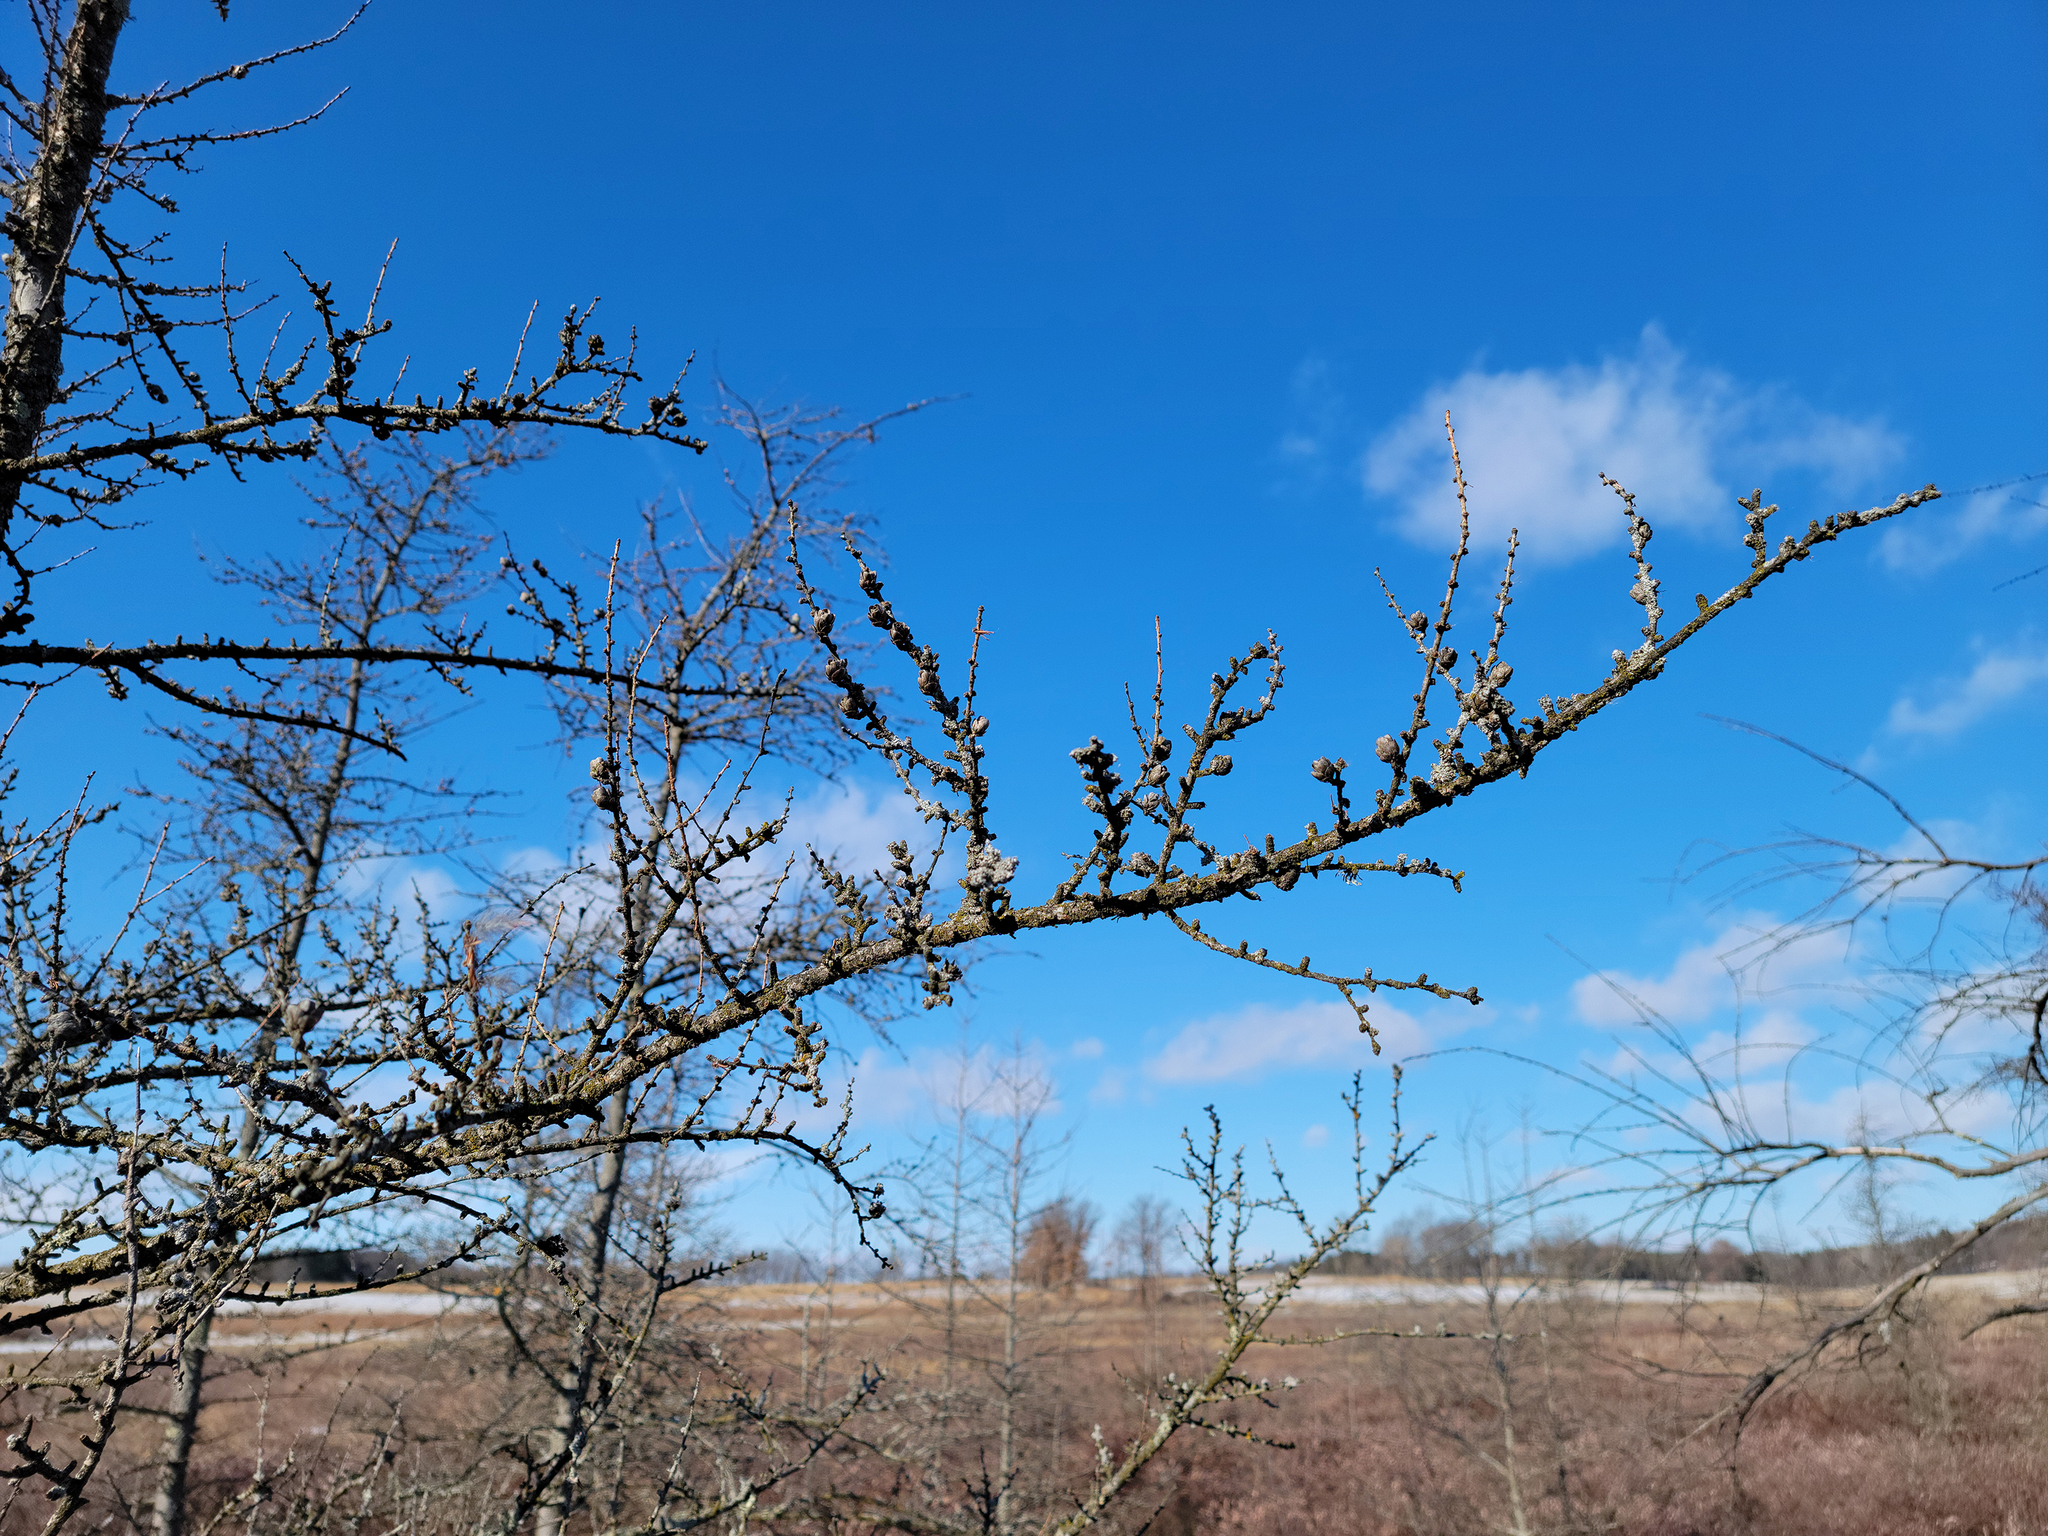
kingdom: Plantae
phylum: Tracheophyta
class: Pinopsida
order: Pinales
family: Pinaceae
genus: Larix
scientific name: Larix laricina
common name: American larch
